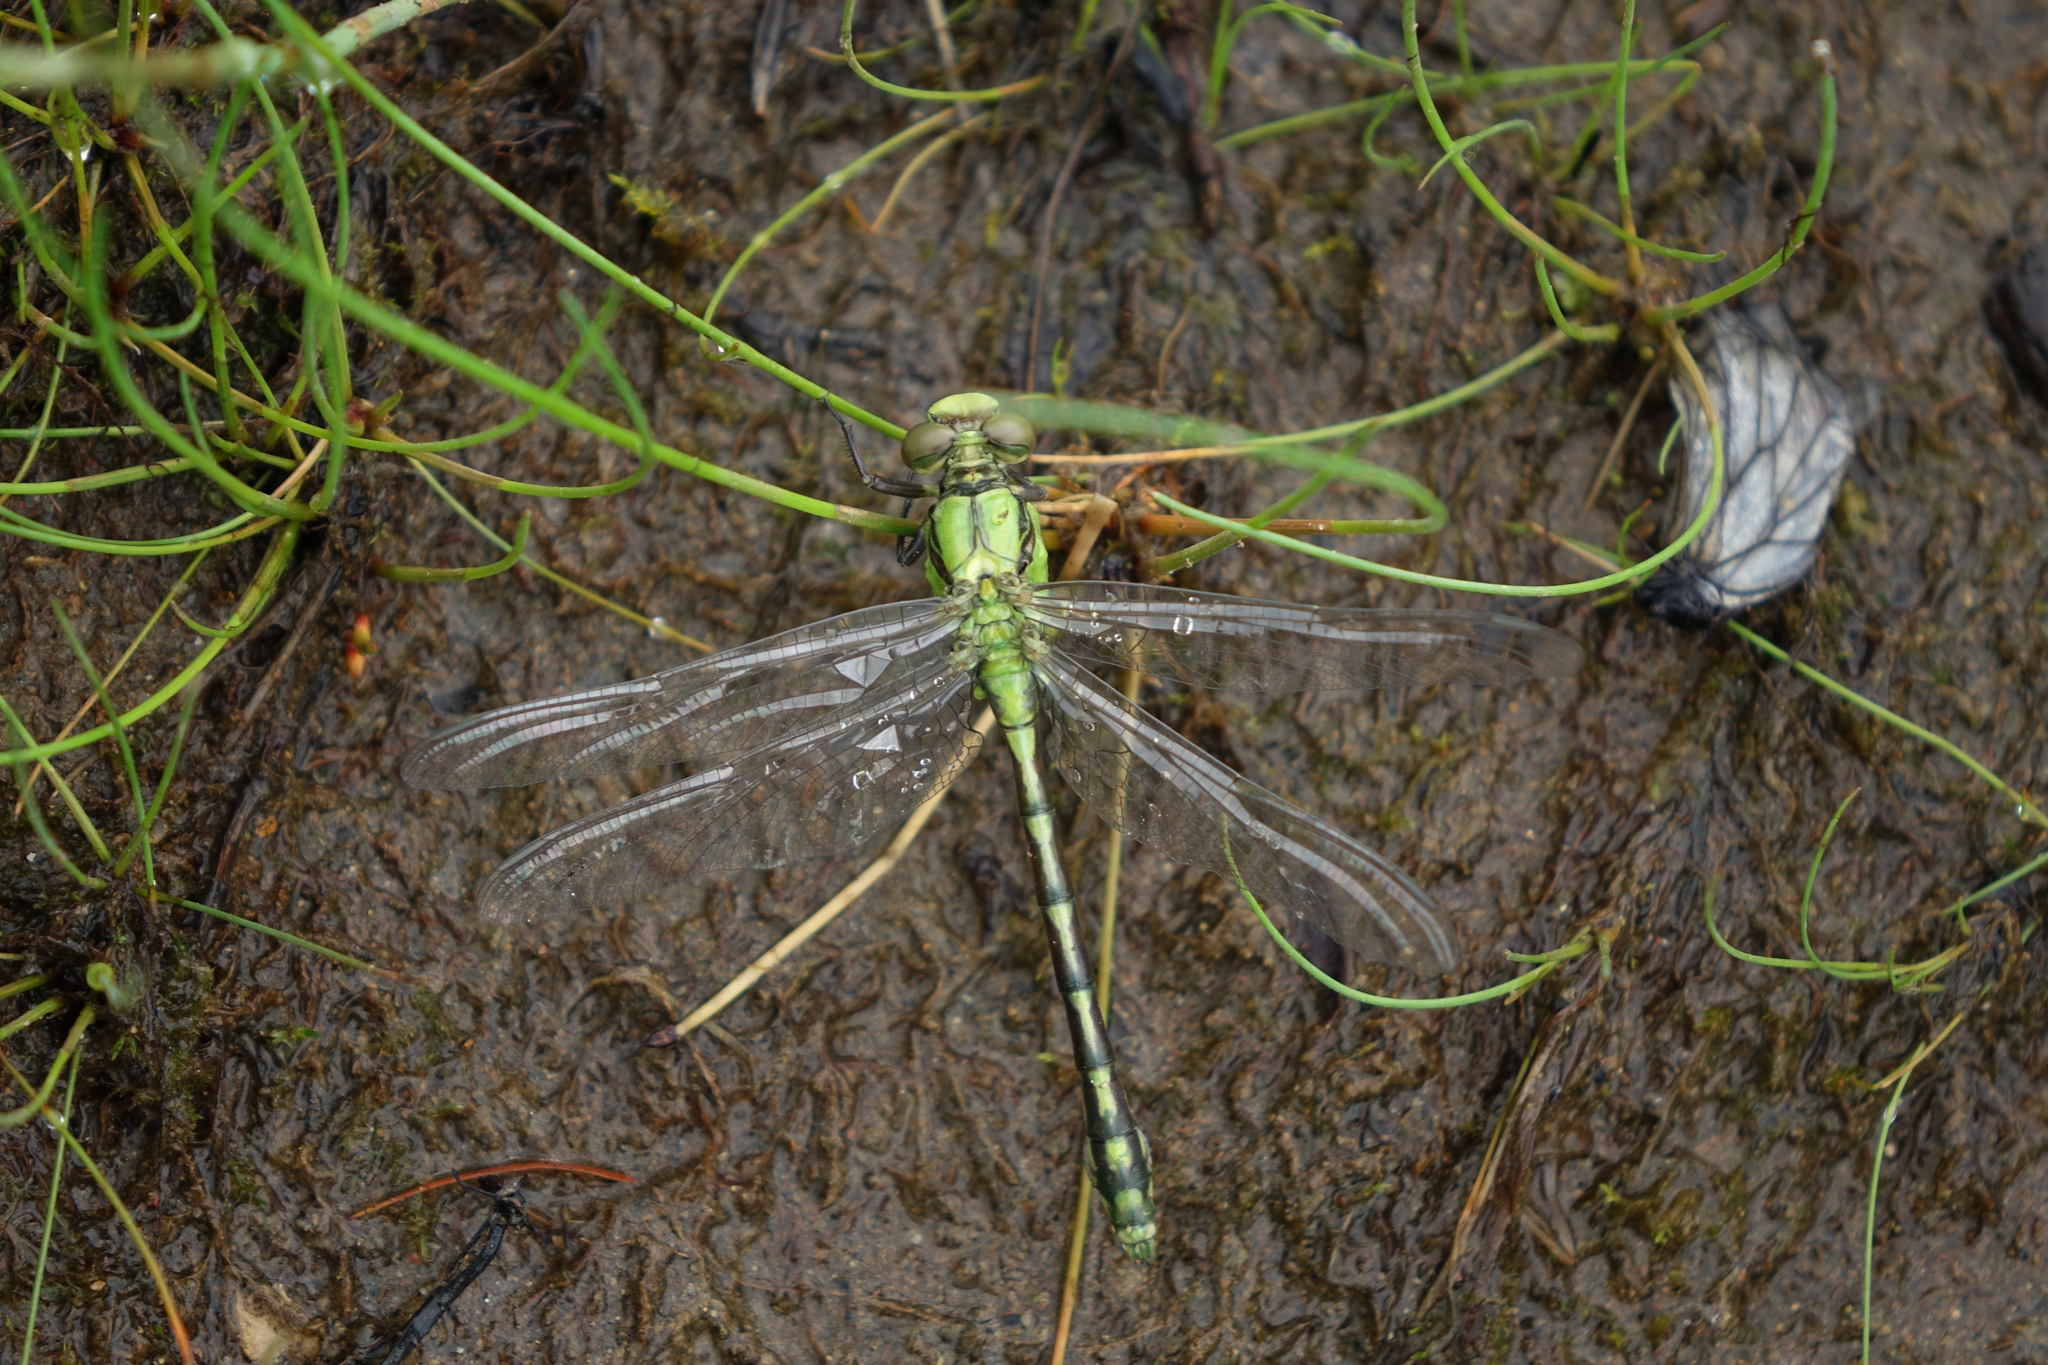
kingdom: Animalia
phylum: Arthropoda
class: Insecta
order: Odonata
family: Gomphidae
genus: Ophiogomphus
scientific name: Ophiogomphus obscurus
